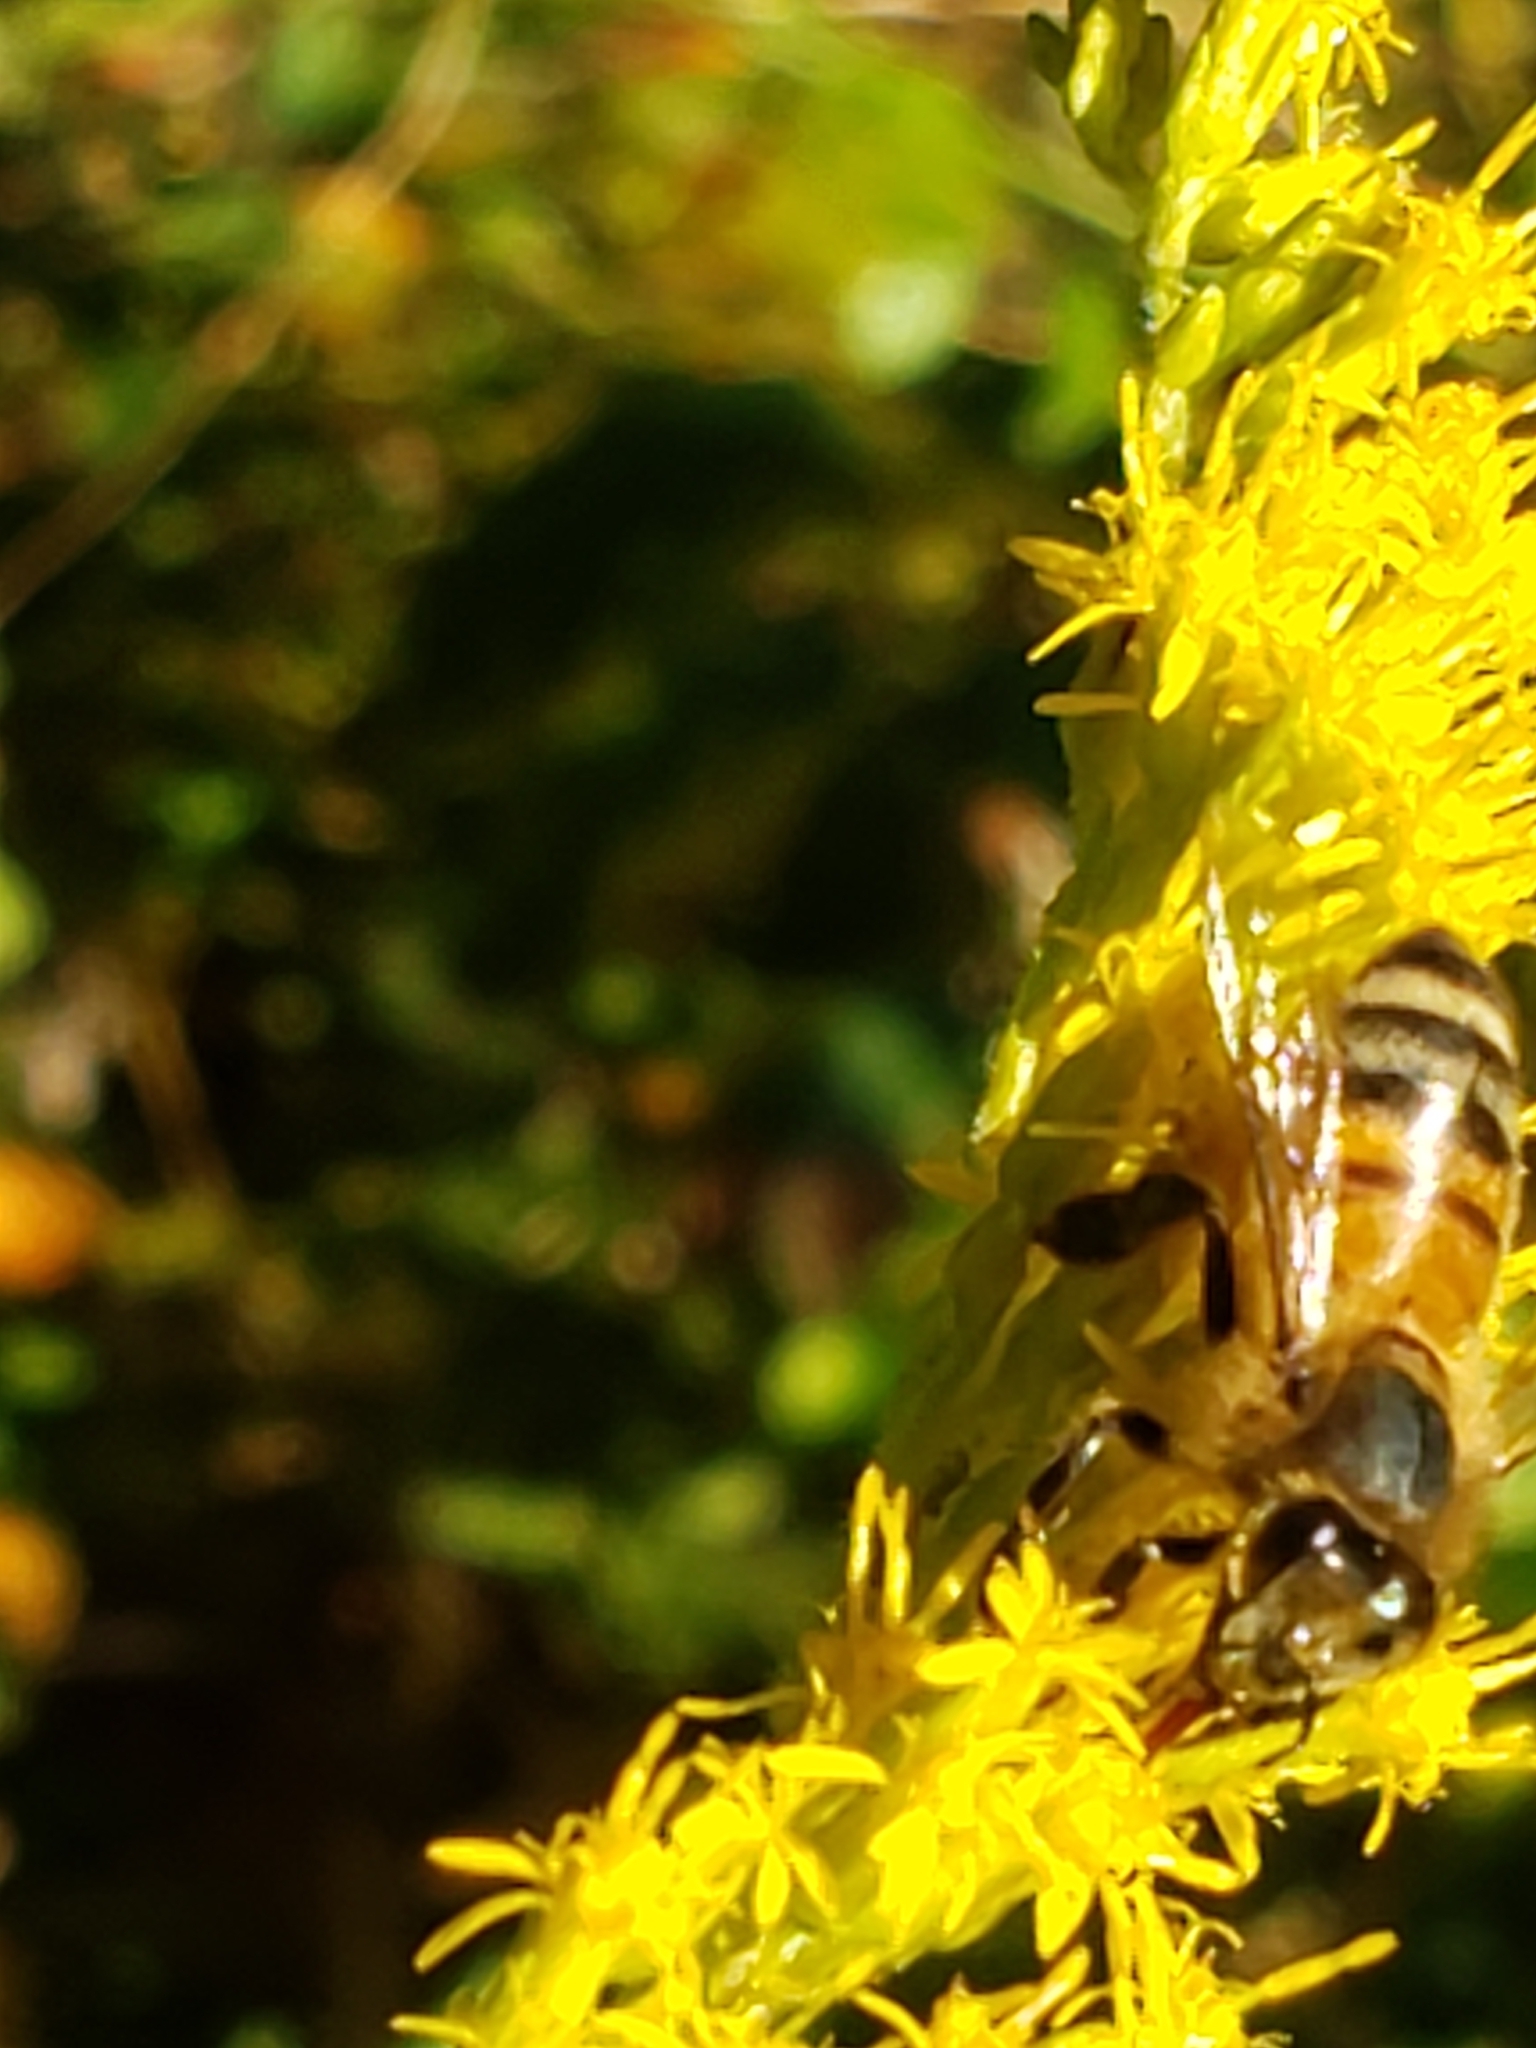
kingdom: Animalia
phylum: Arthropoda
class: Insecta
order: Hymenoptera
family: Apidae
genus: Apis
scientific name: Apis mellifera
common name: Honey bee
